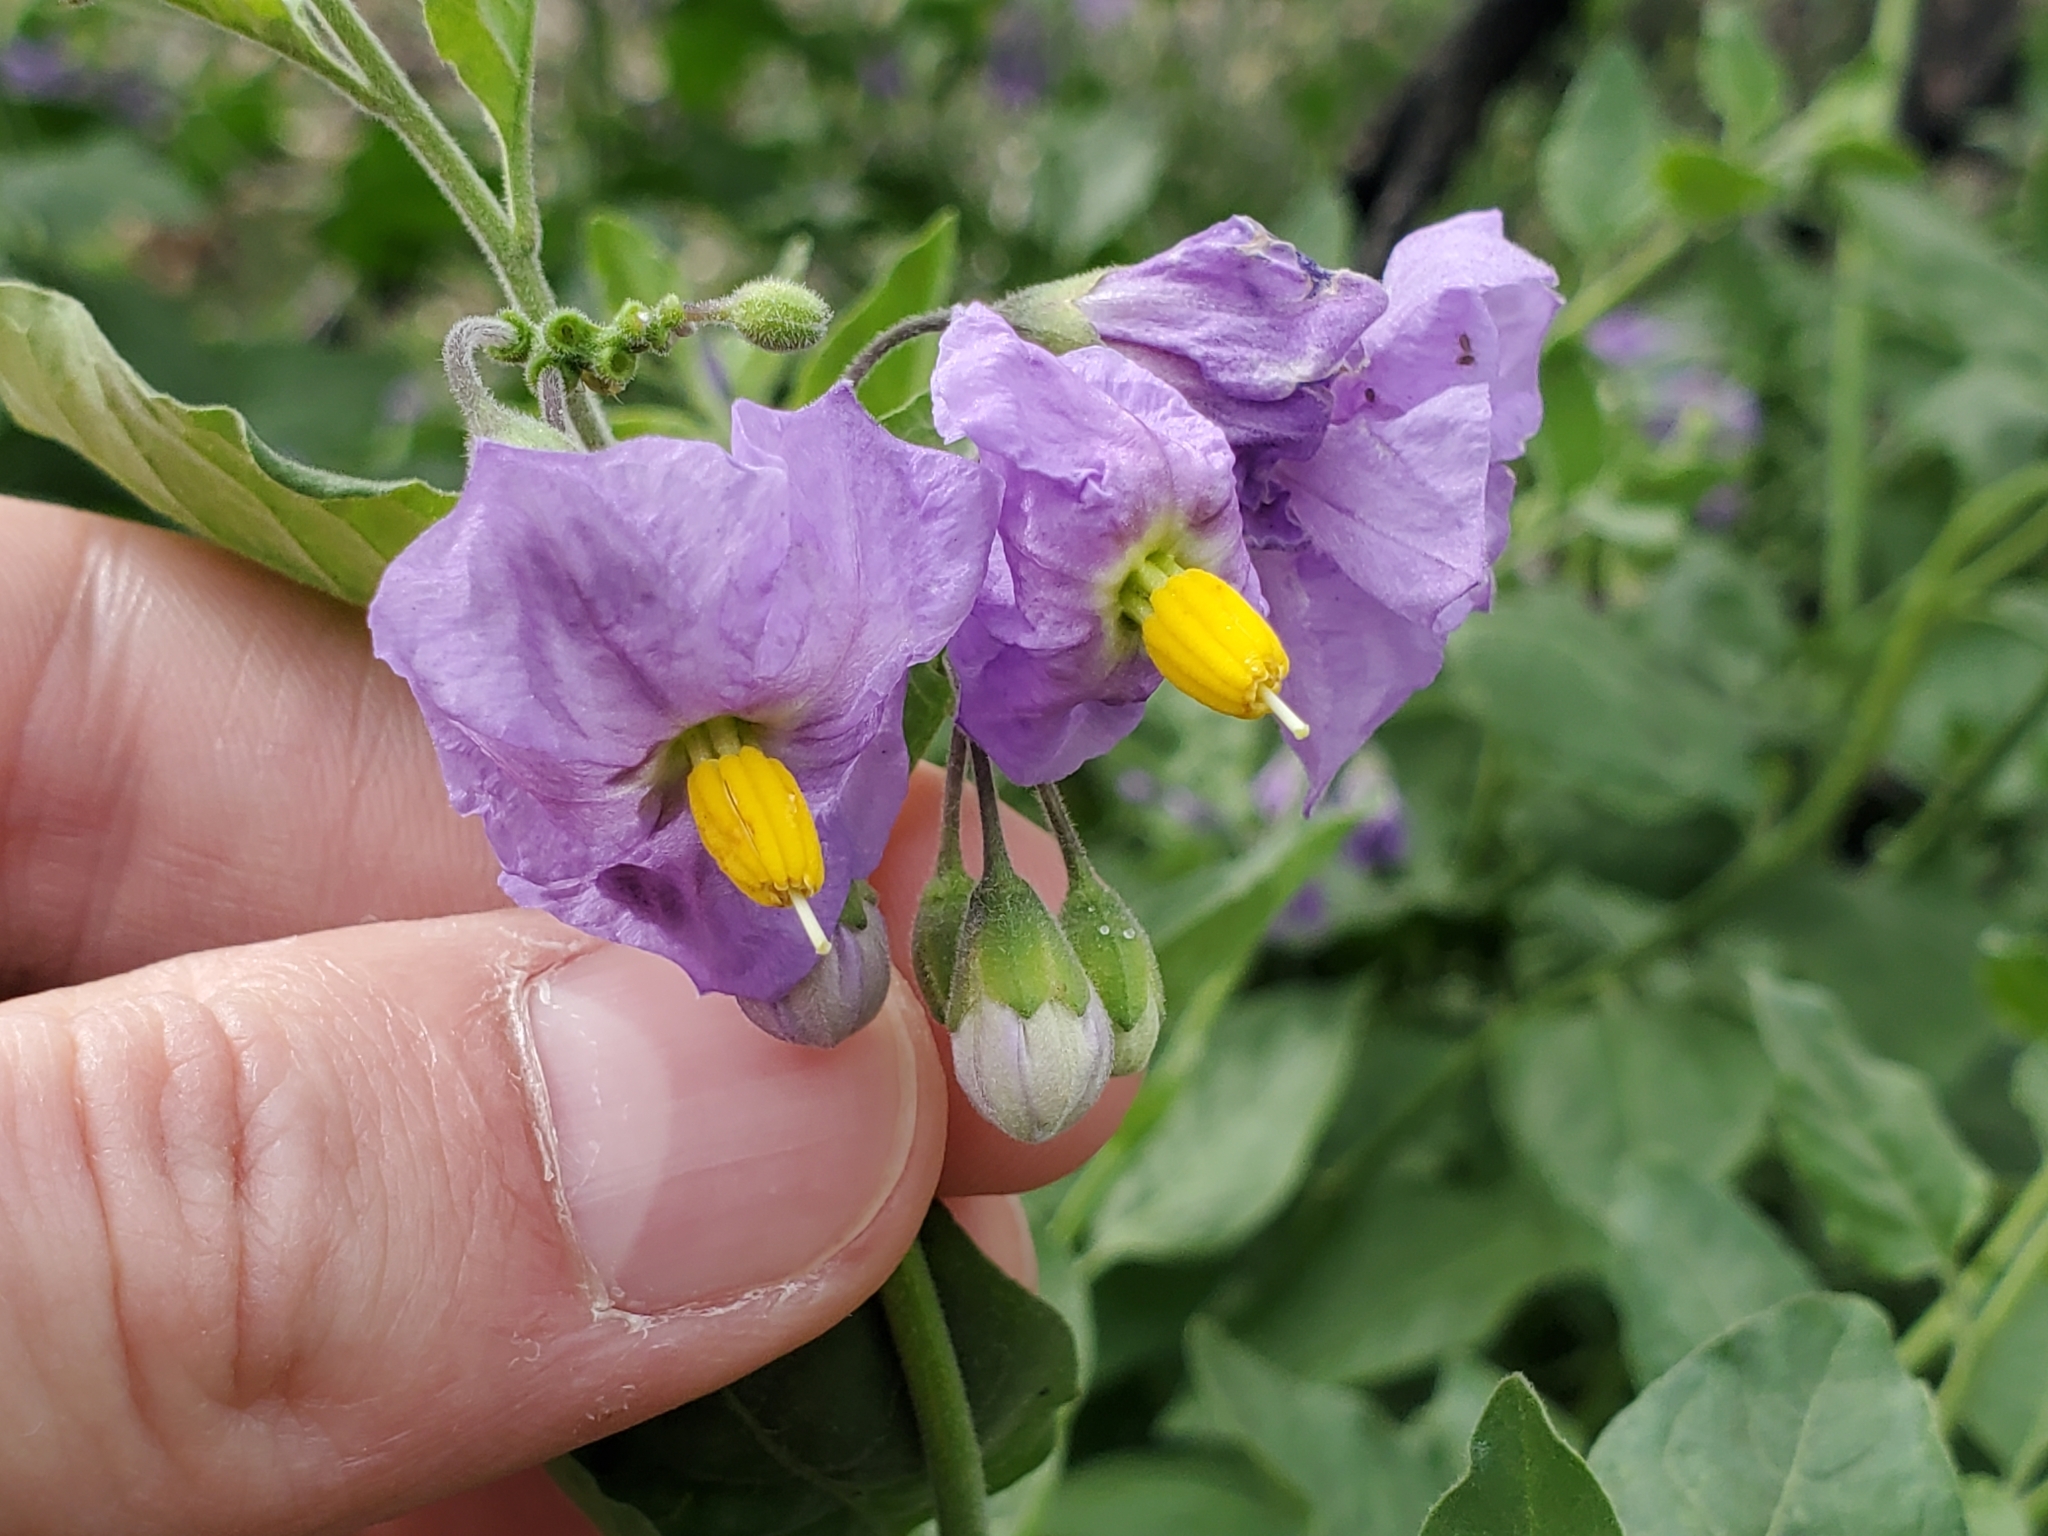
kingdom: Plantae
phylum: Tracheophyta
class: Magnoliopsida
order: Solanales
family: Solanaceae
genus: Solanum
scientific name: Solanum umbelliferum
